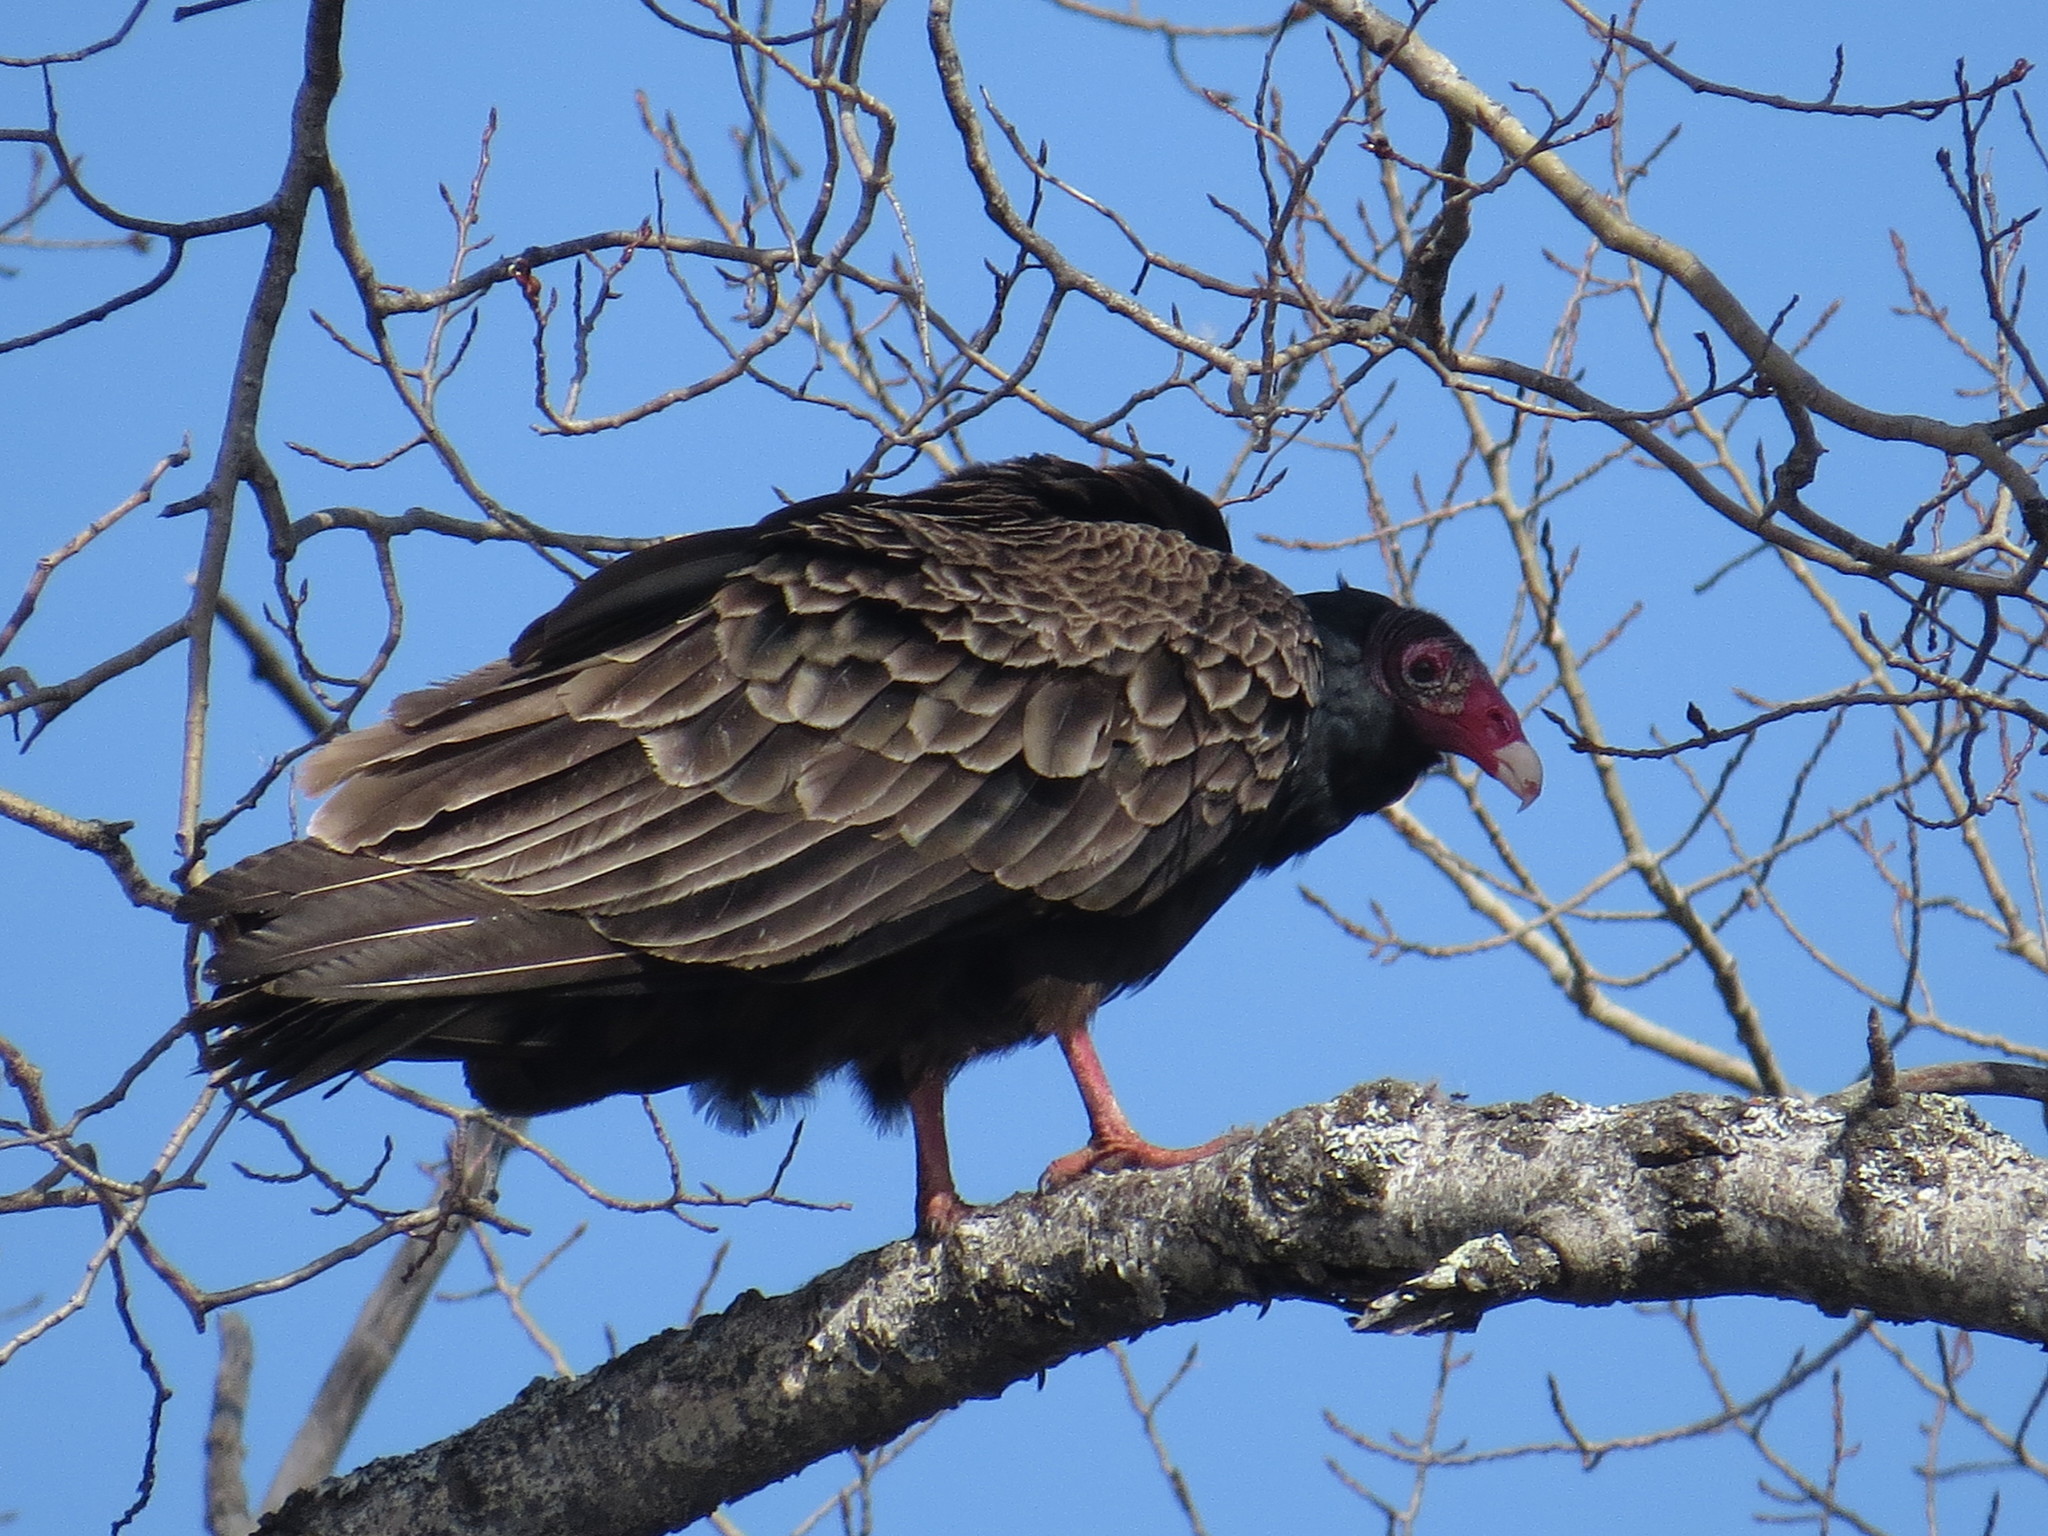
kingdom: Animalia
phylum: Chordata
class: Aves
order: Accipitriformes
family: Cathartidae
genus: Cathartes
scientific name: Cathartes aura
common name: Turkey vulture
